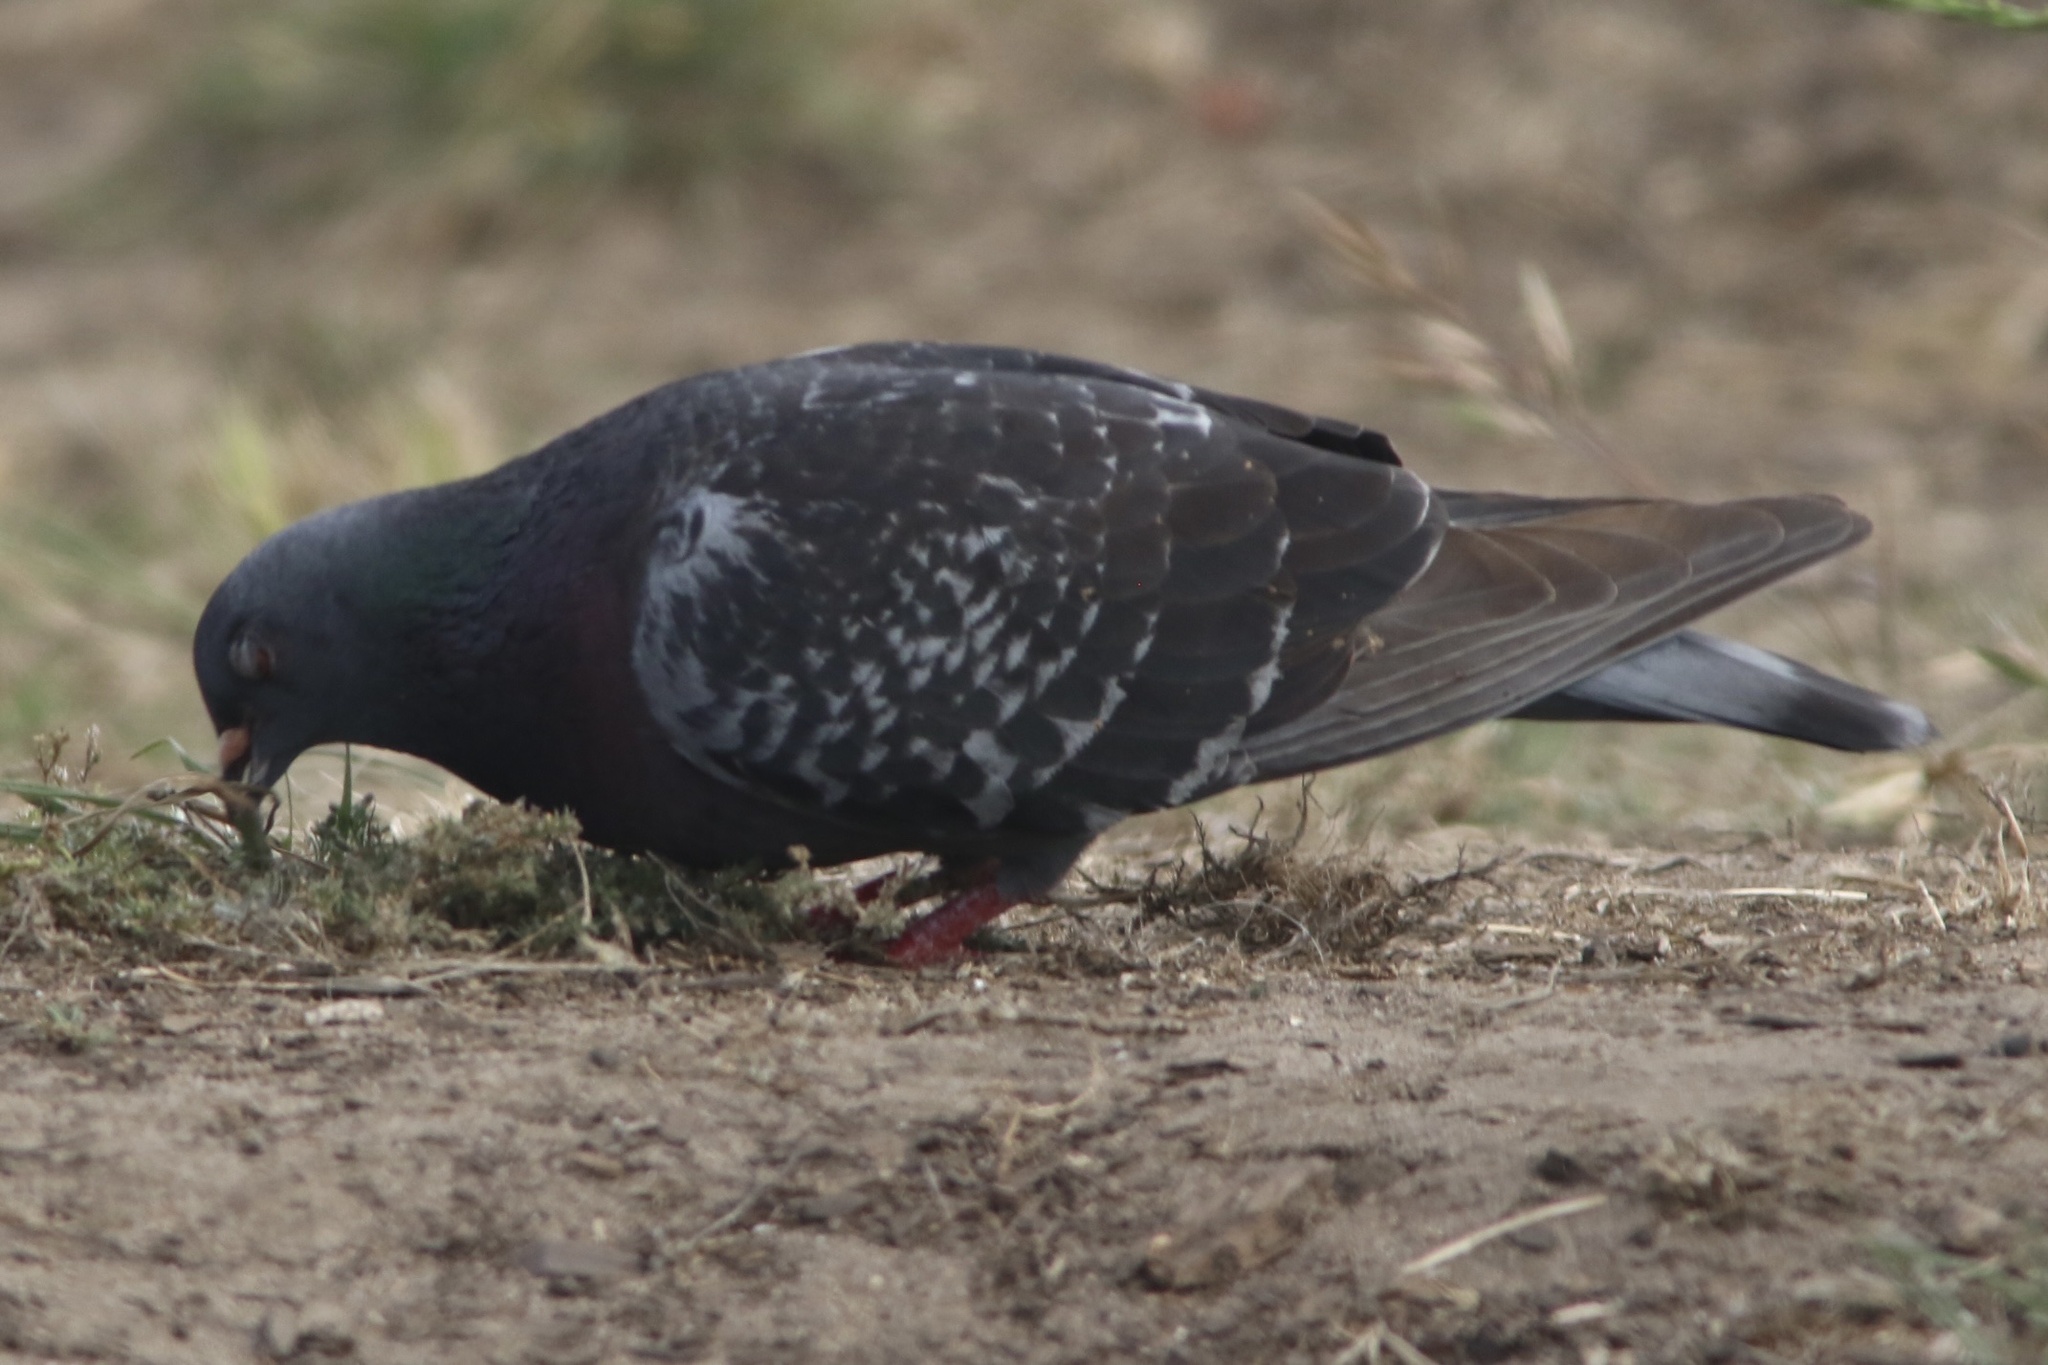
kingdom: Animalia
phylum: Chordata
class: Aves
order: Columbiformes
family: Columbidae
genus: Columba
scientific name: Columba livia
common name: Rock pigeon
